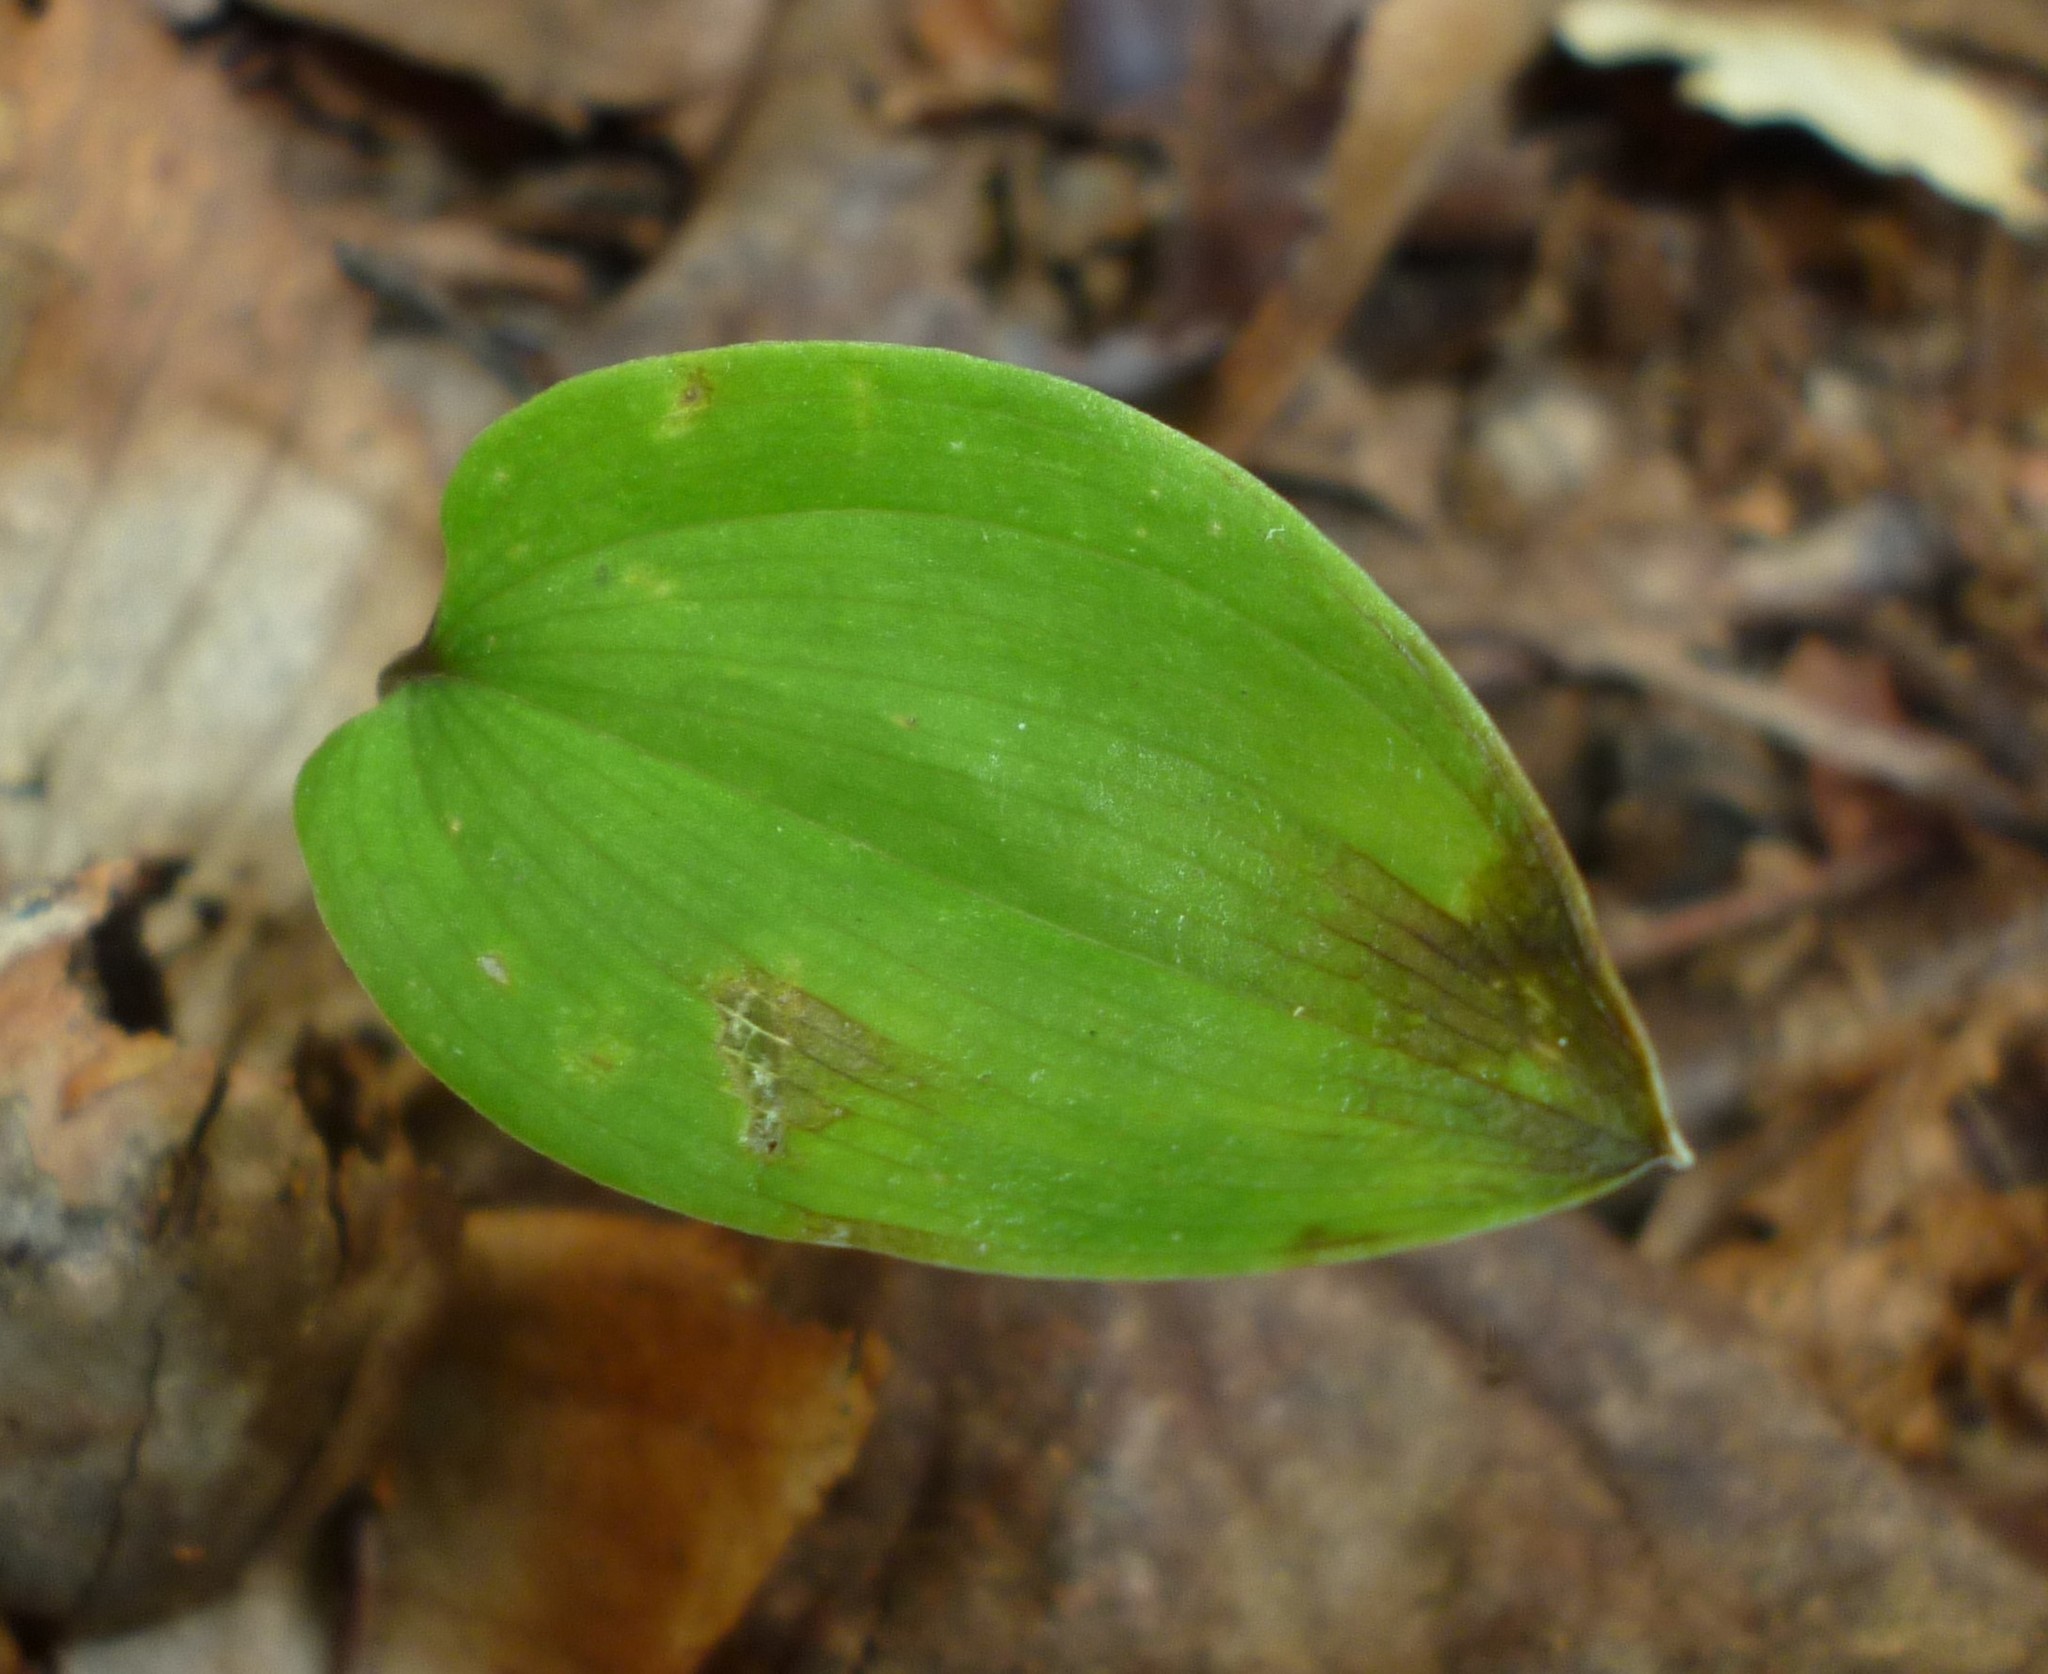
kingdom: Plantae
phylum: Tracheophyta
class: Liliopsida
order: Asparagales
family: Asparagaceae
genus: Maianthemum
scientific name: Maianthemum canadense
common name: False lily-of-the-valley
